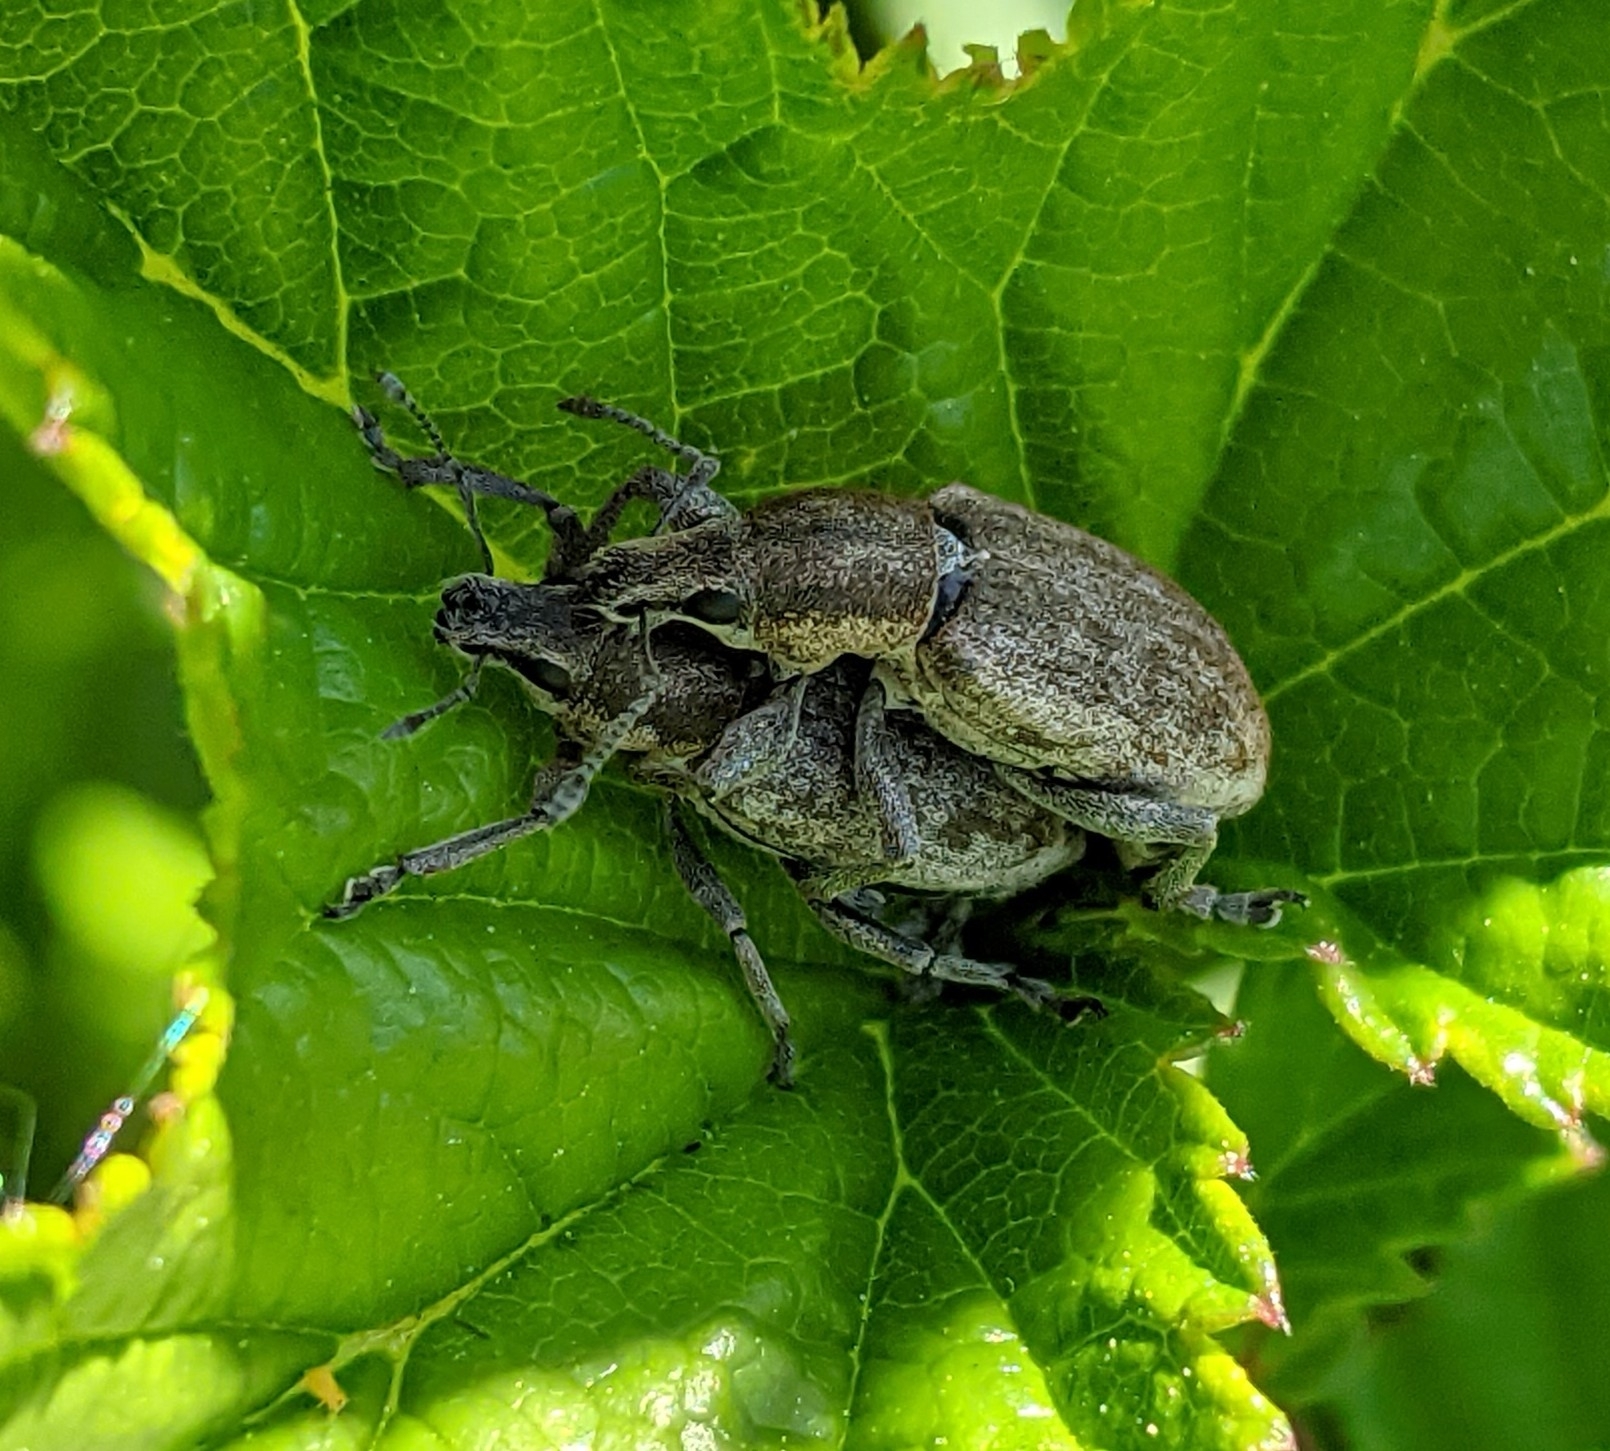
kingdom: Animalia
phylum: Arthropoda
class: Insecta
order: Coleoptera
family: Curculionidae
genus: Tanymecus
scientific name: Tanymecus palliatus
